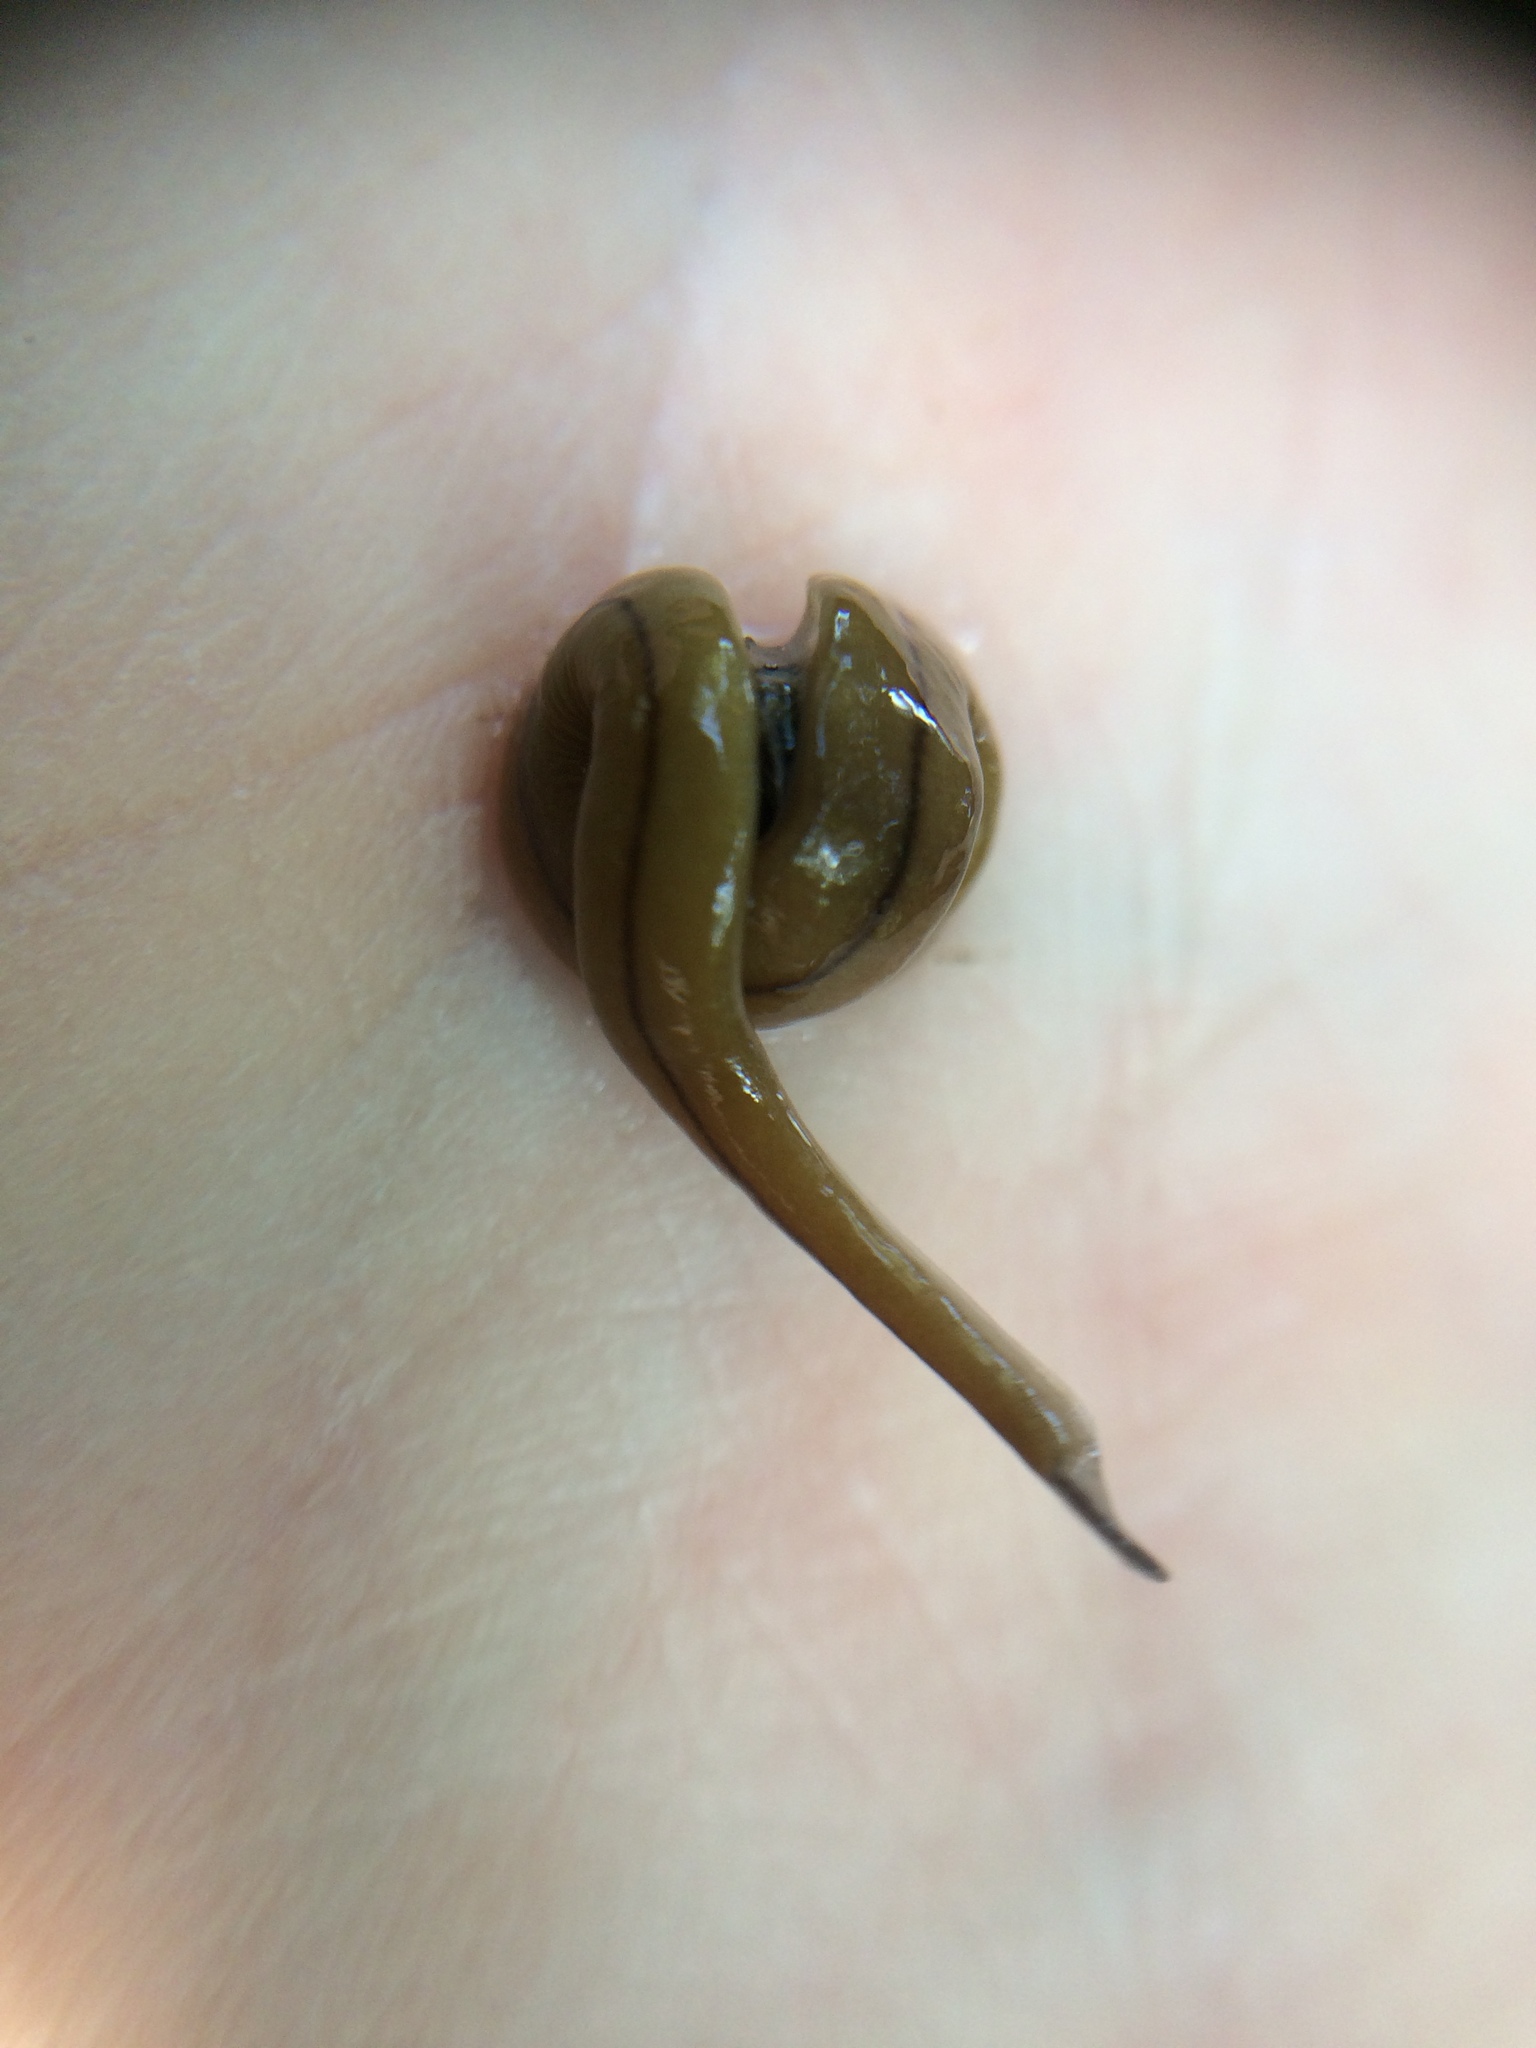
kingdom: Animalia
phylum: Platyhelminthes
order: Tricladida
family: Geoplanidae
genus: Bipalium
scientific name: Bipalium adventitium
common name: Land planarian
